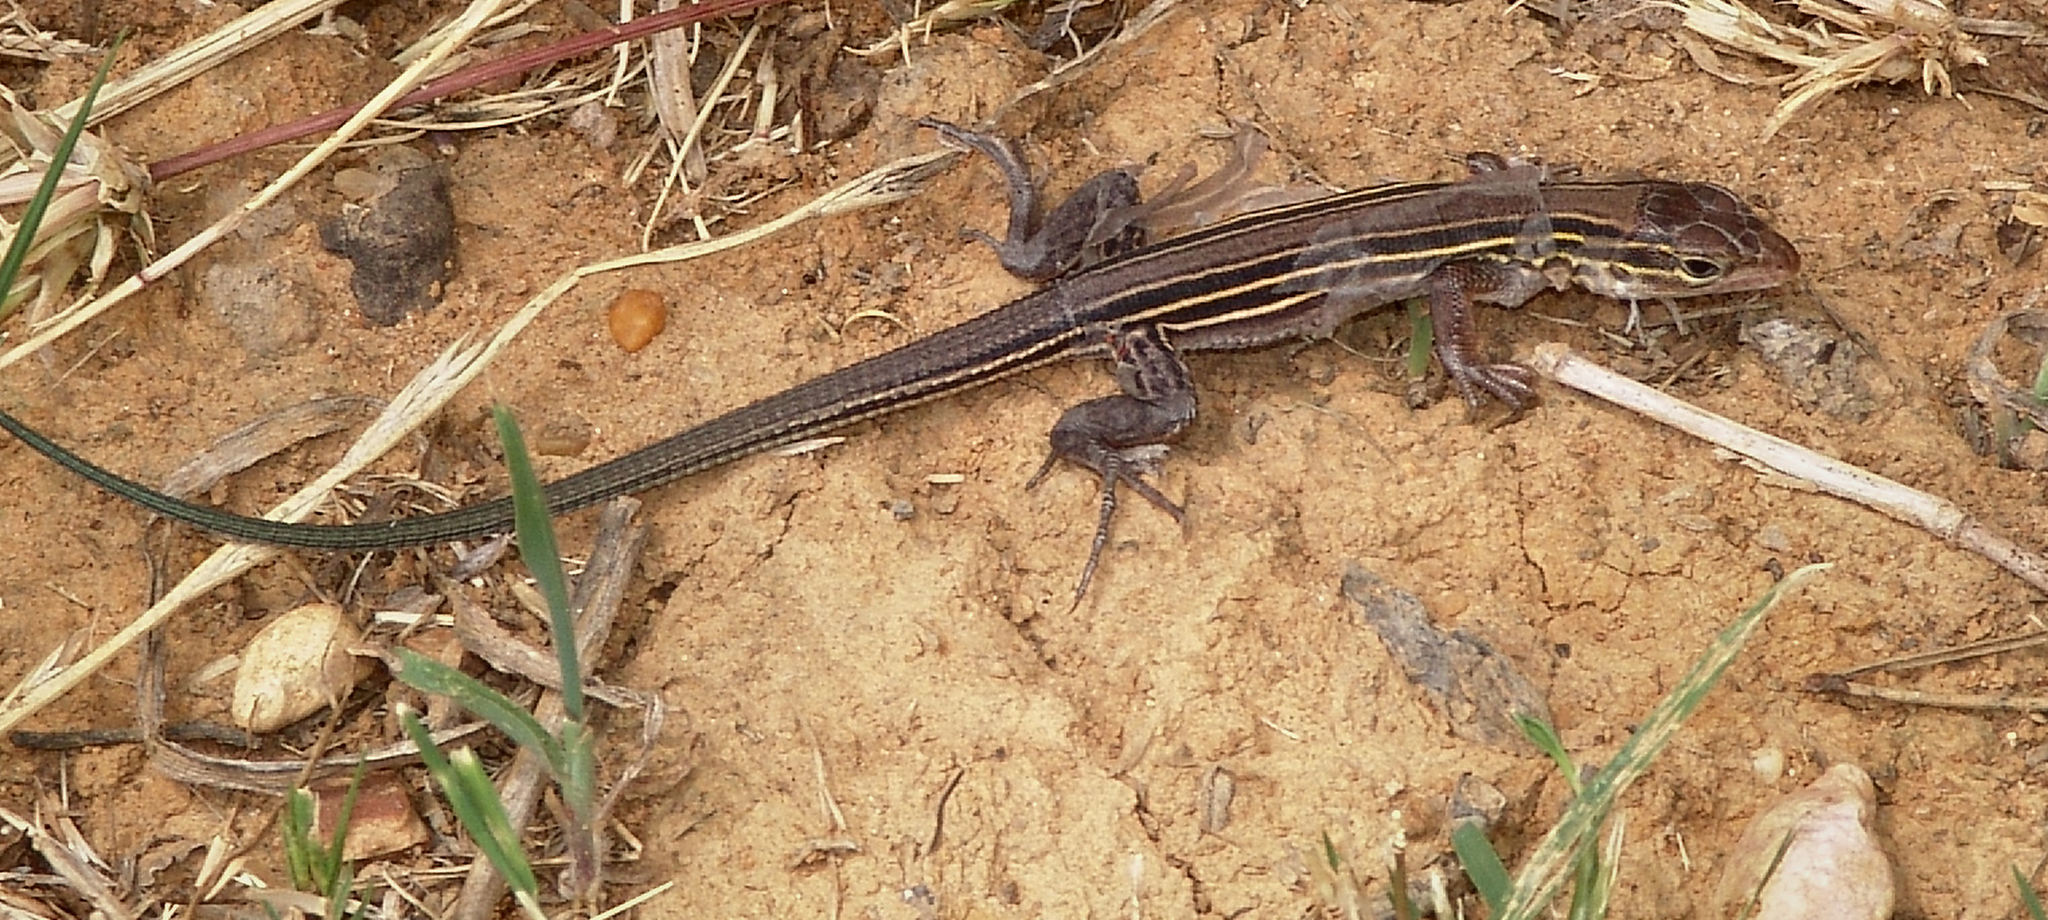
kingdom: Animalia
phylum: Chordata
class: Squamata
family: Teiidae
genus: Aspidoscelis
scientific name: Aspidoscelis sexlineatus
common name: Six-lined racerunner
